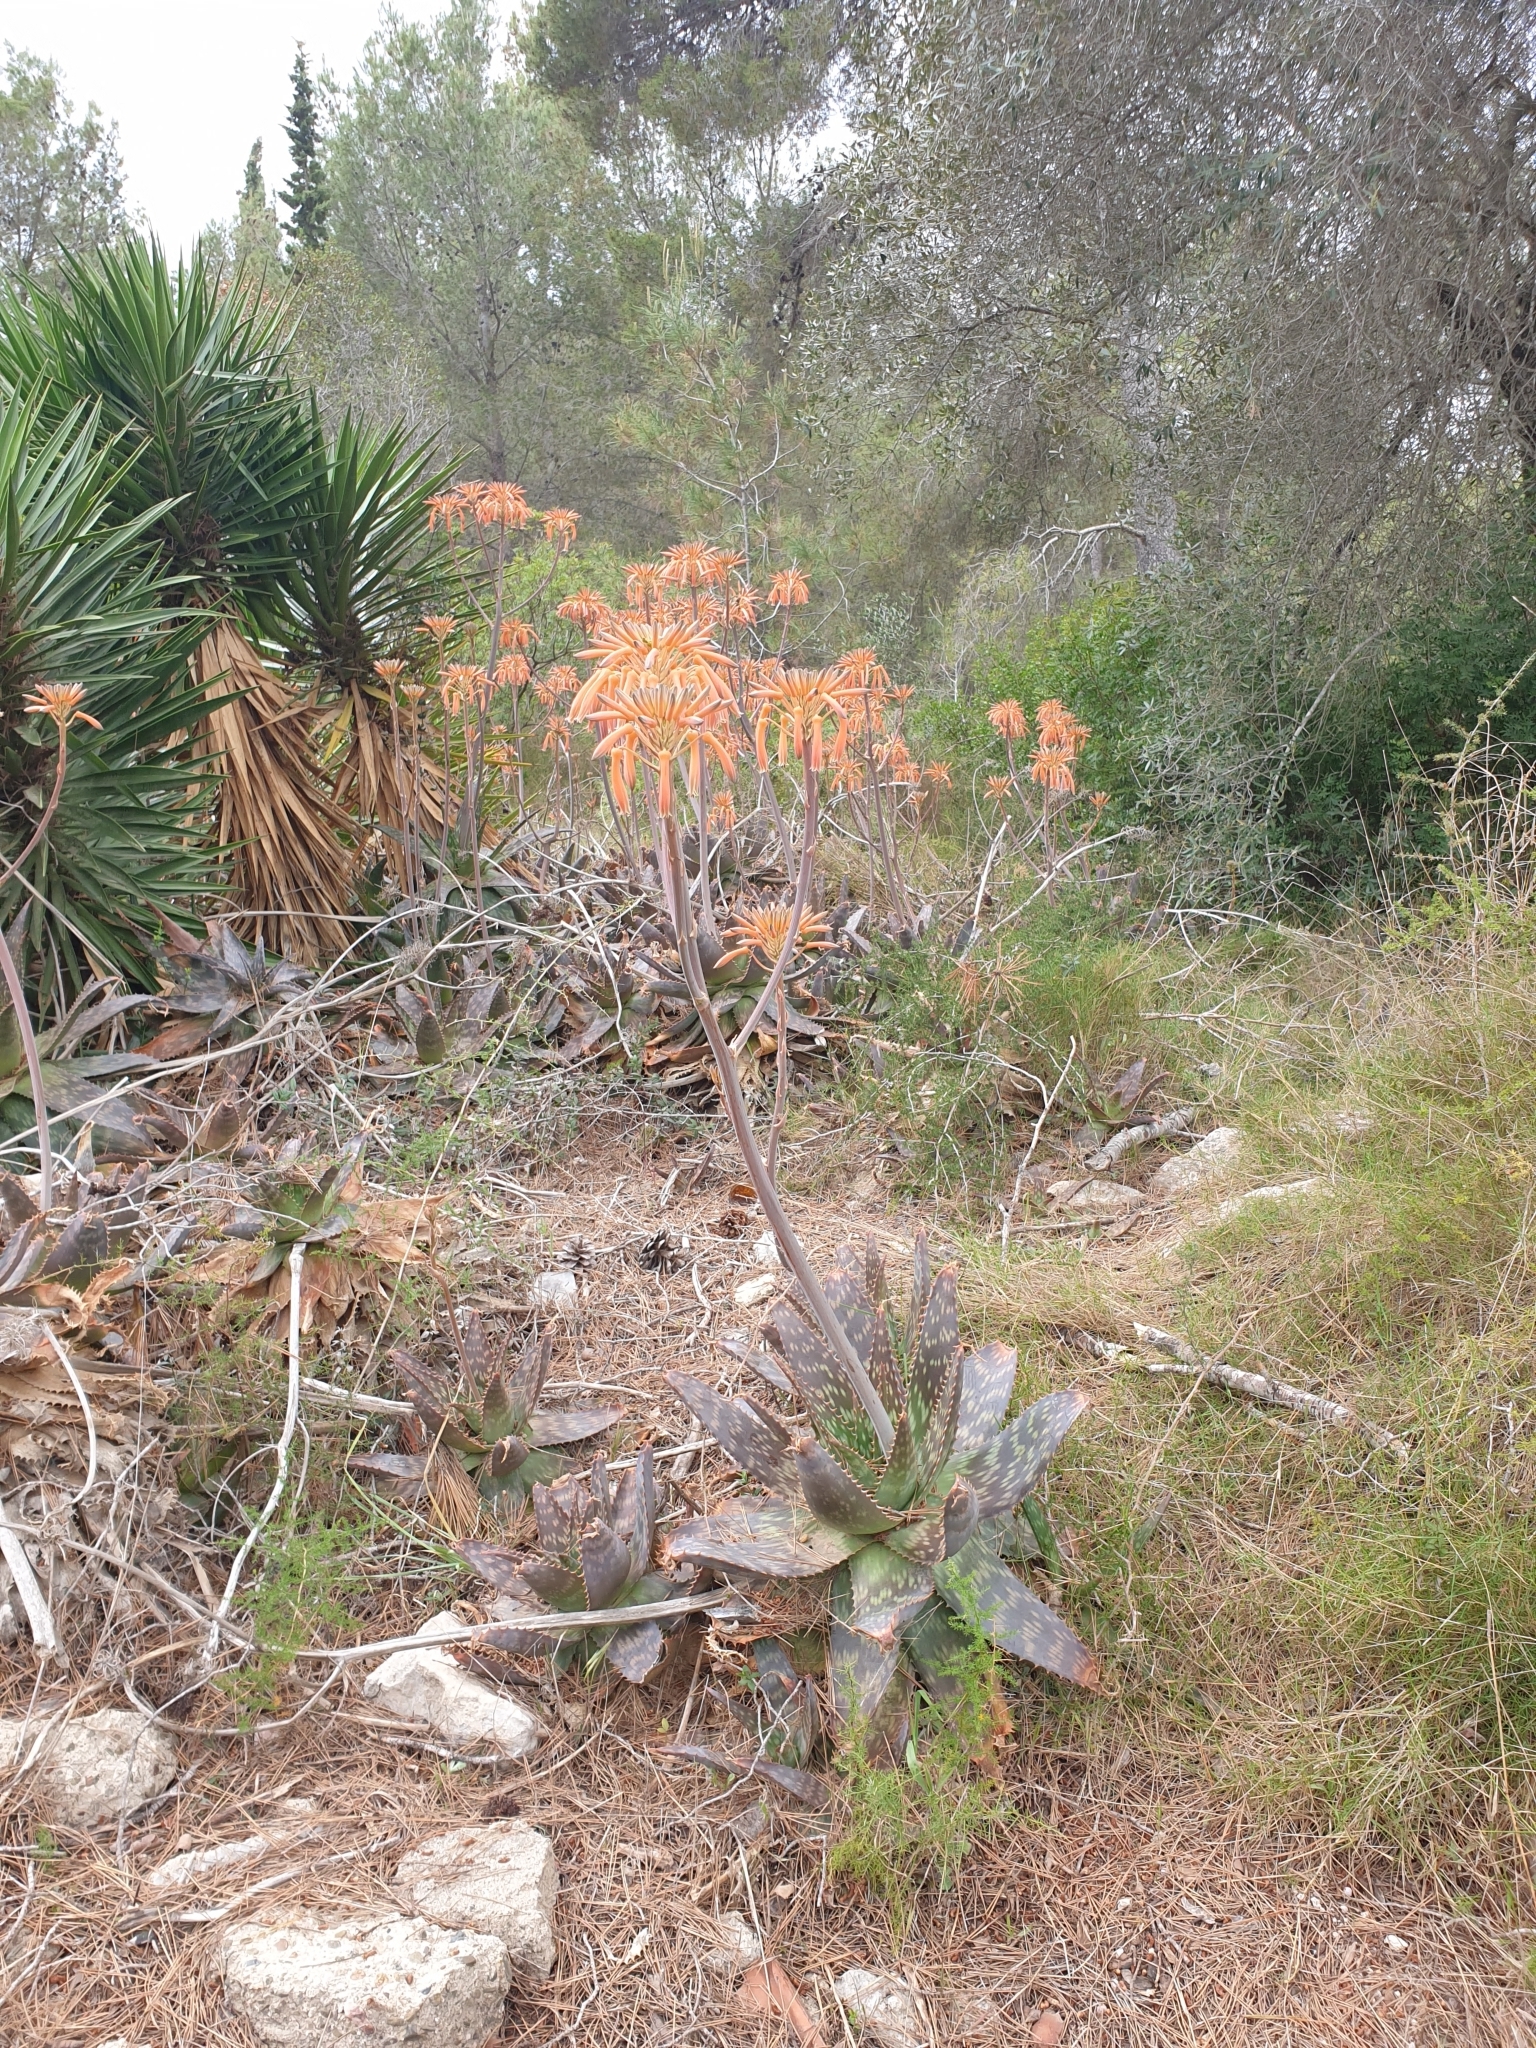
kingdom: Plantae
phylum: Tracheophyta
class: Liliopsida
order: Asparagales
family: Asphodelaceae
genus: Aloe
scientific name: Aloe maculata
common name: Broadleaf aloe
